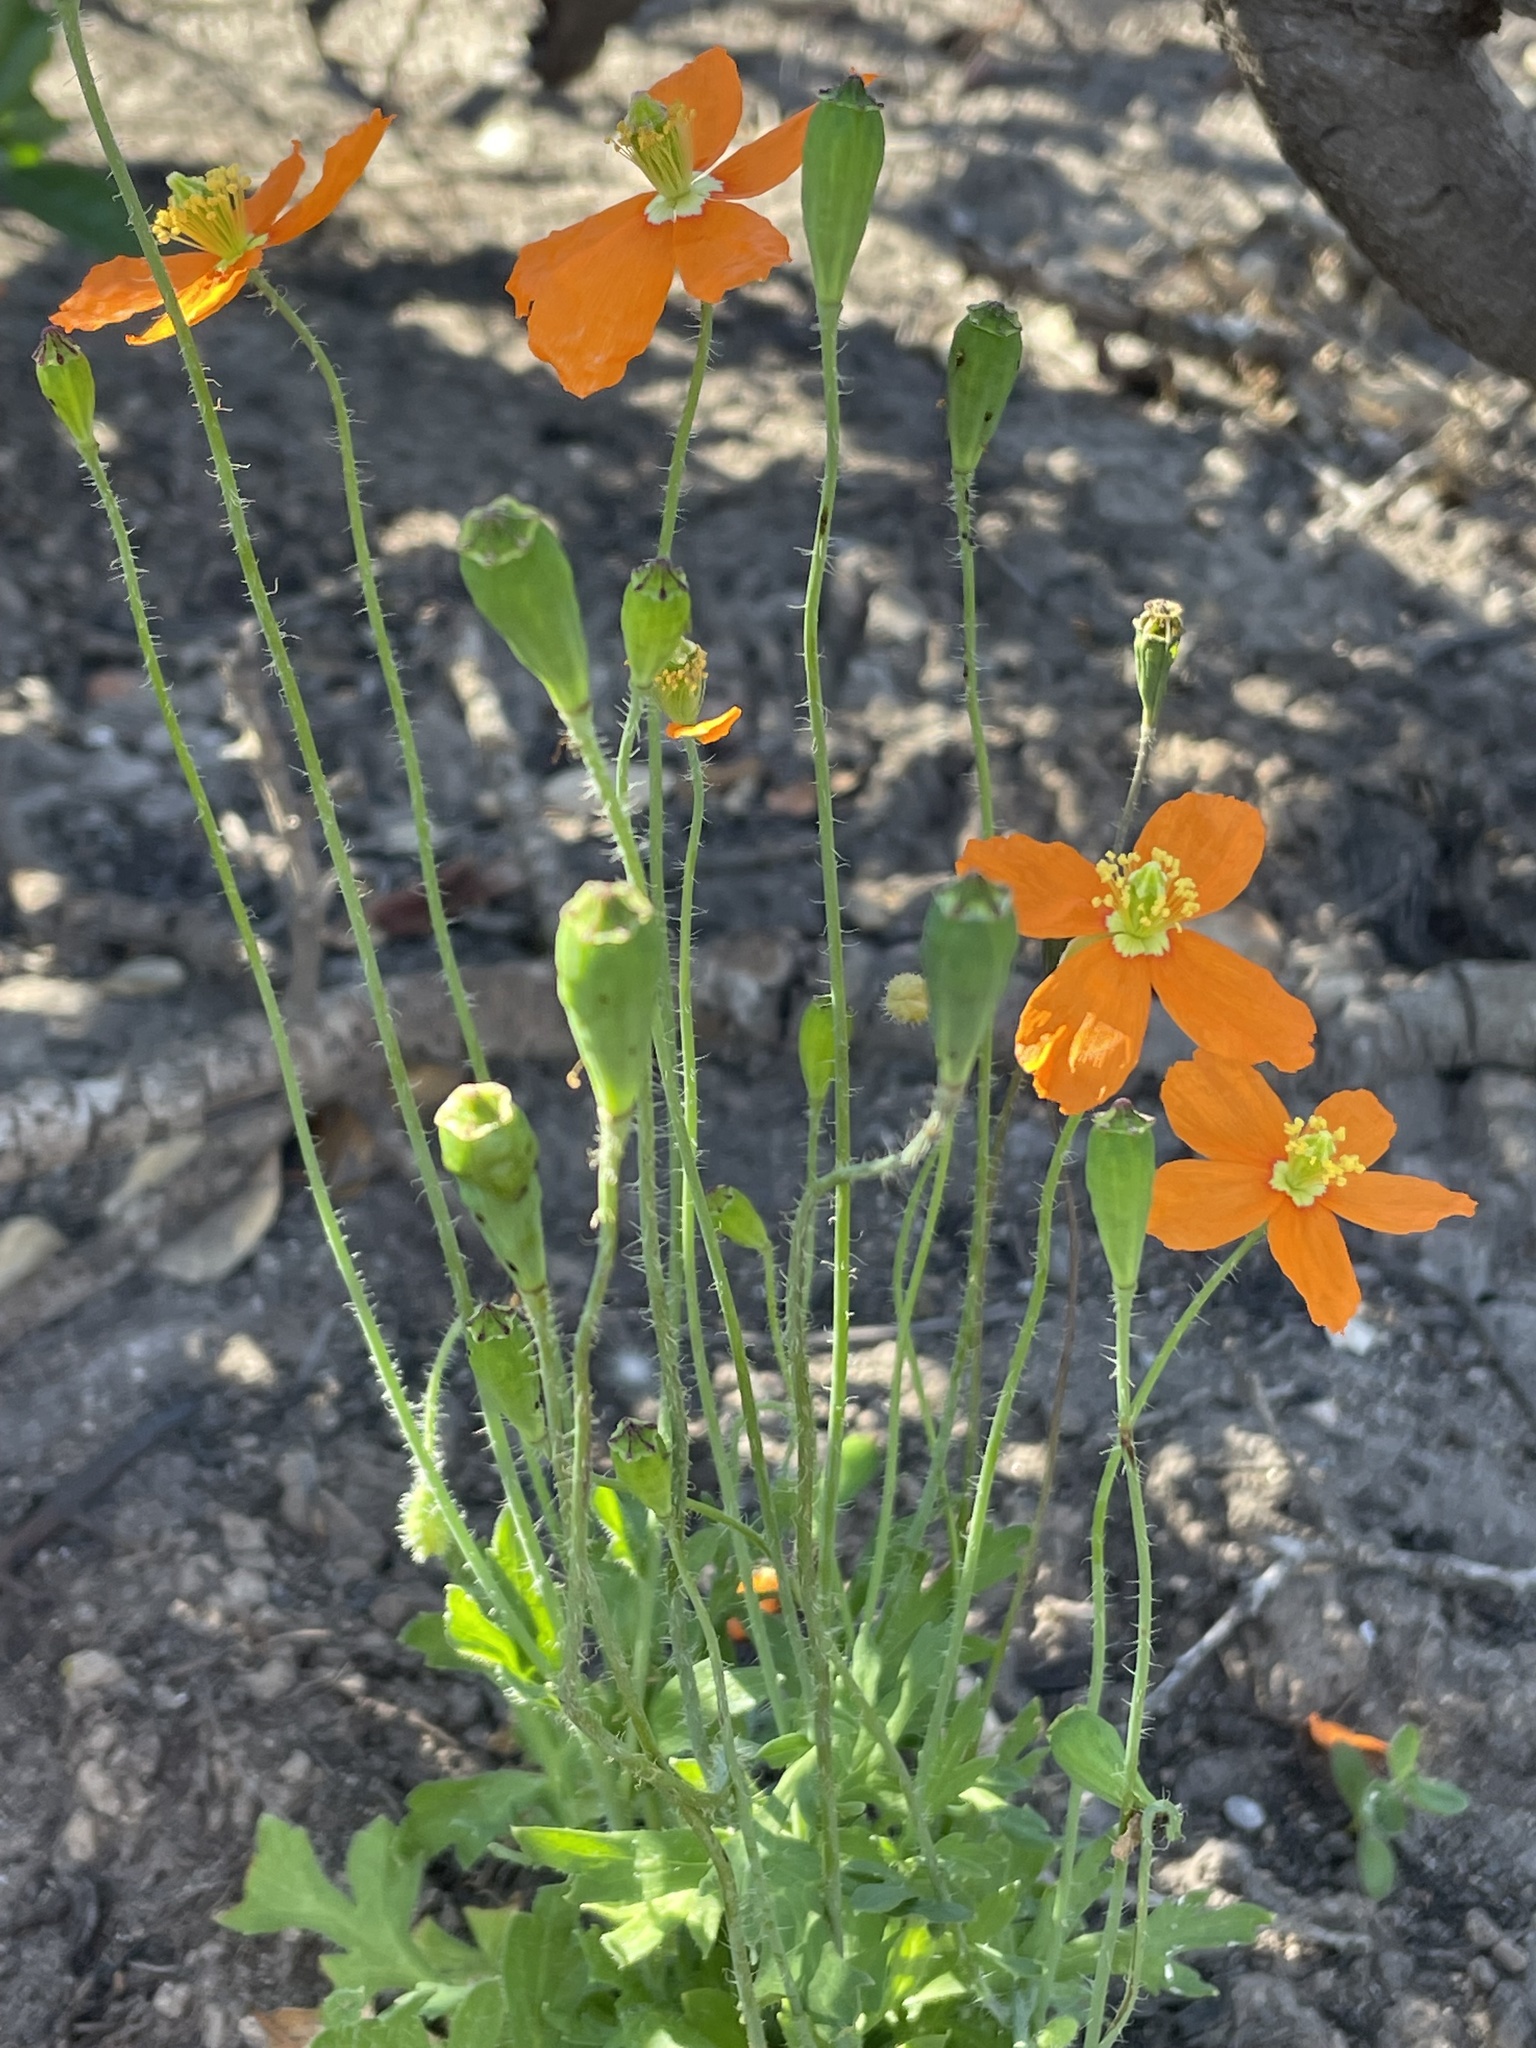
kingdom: Plantae
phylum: Tracheophyta
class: Magnoliopsida
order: Ranunculales
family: Papaveraceae
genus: Papaver
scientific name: Papaver californicum
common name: Fire poppy
